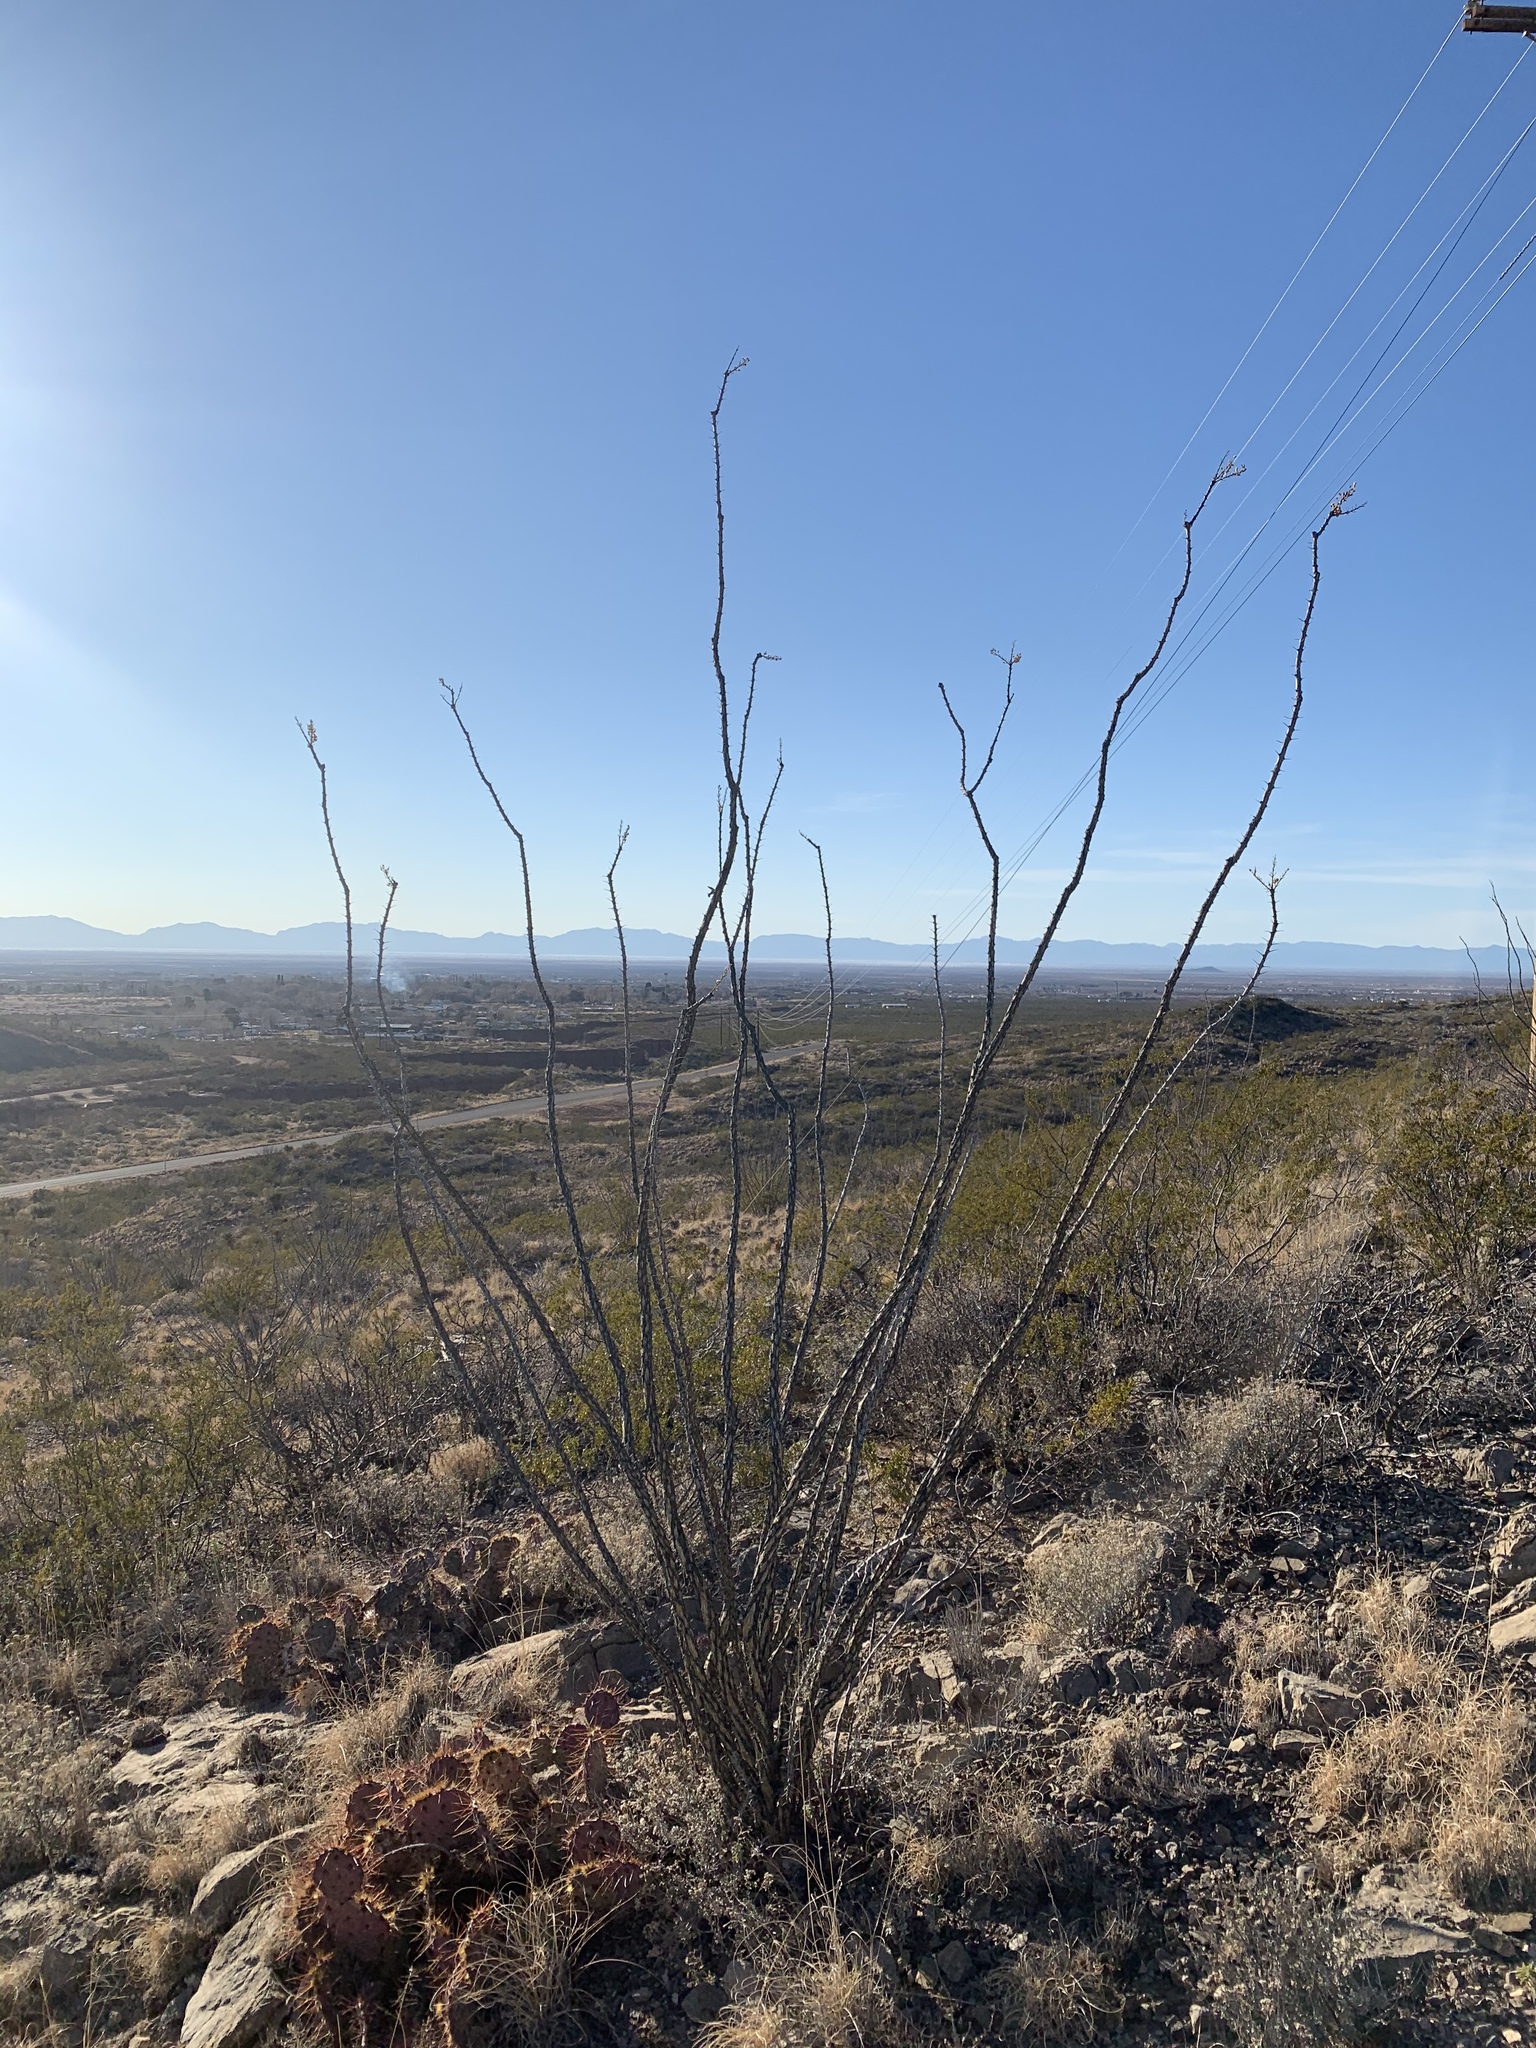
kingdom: Plantae
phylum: Tracheophyta
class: Magnoliopsida
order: Ericales
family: Fouquieriaceae
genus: Fouquieria
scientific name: Fouquieria splendens
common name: Vine-cactus
